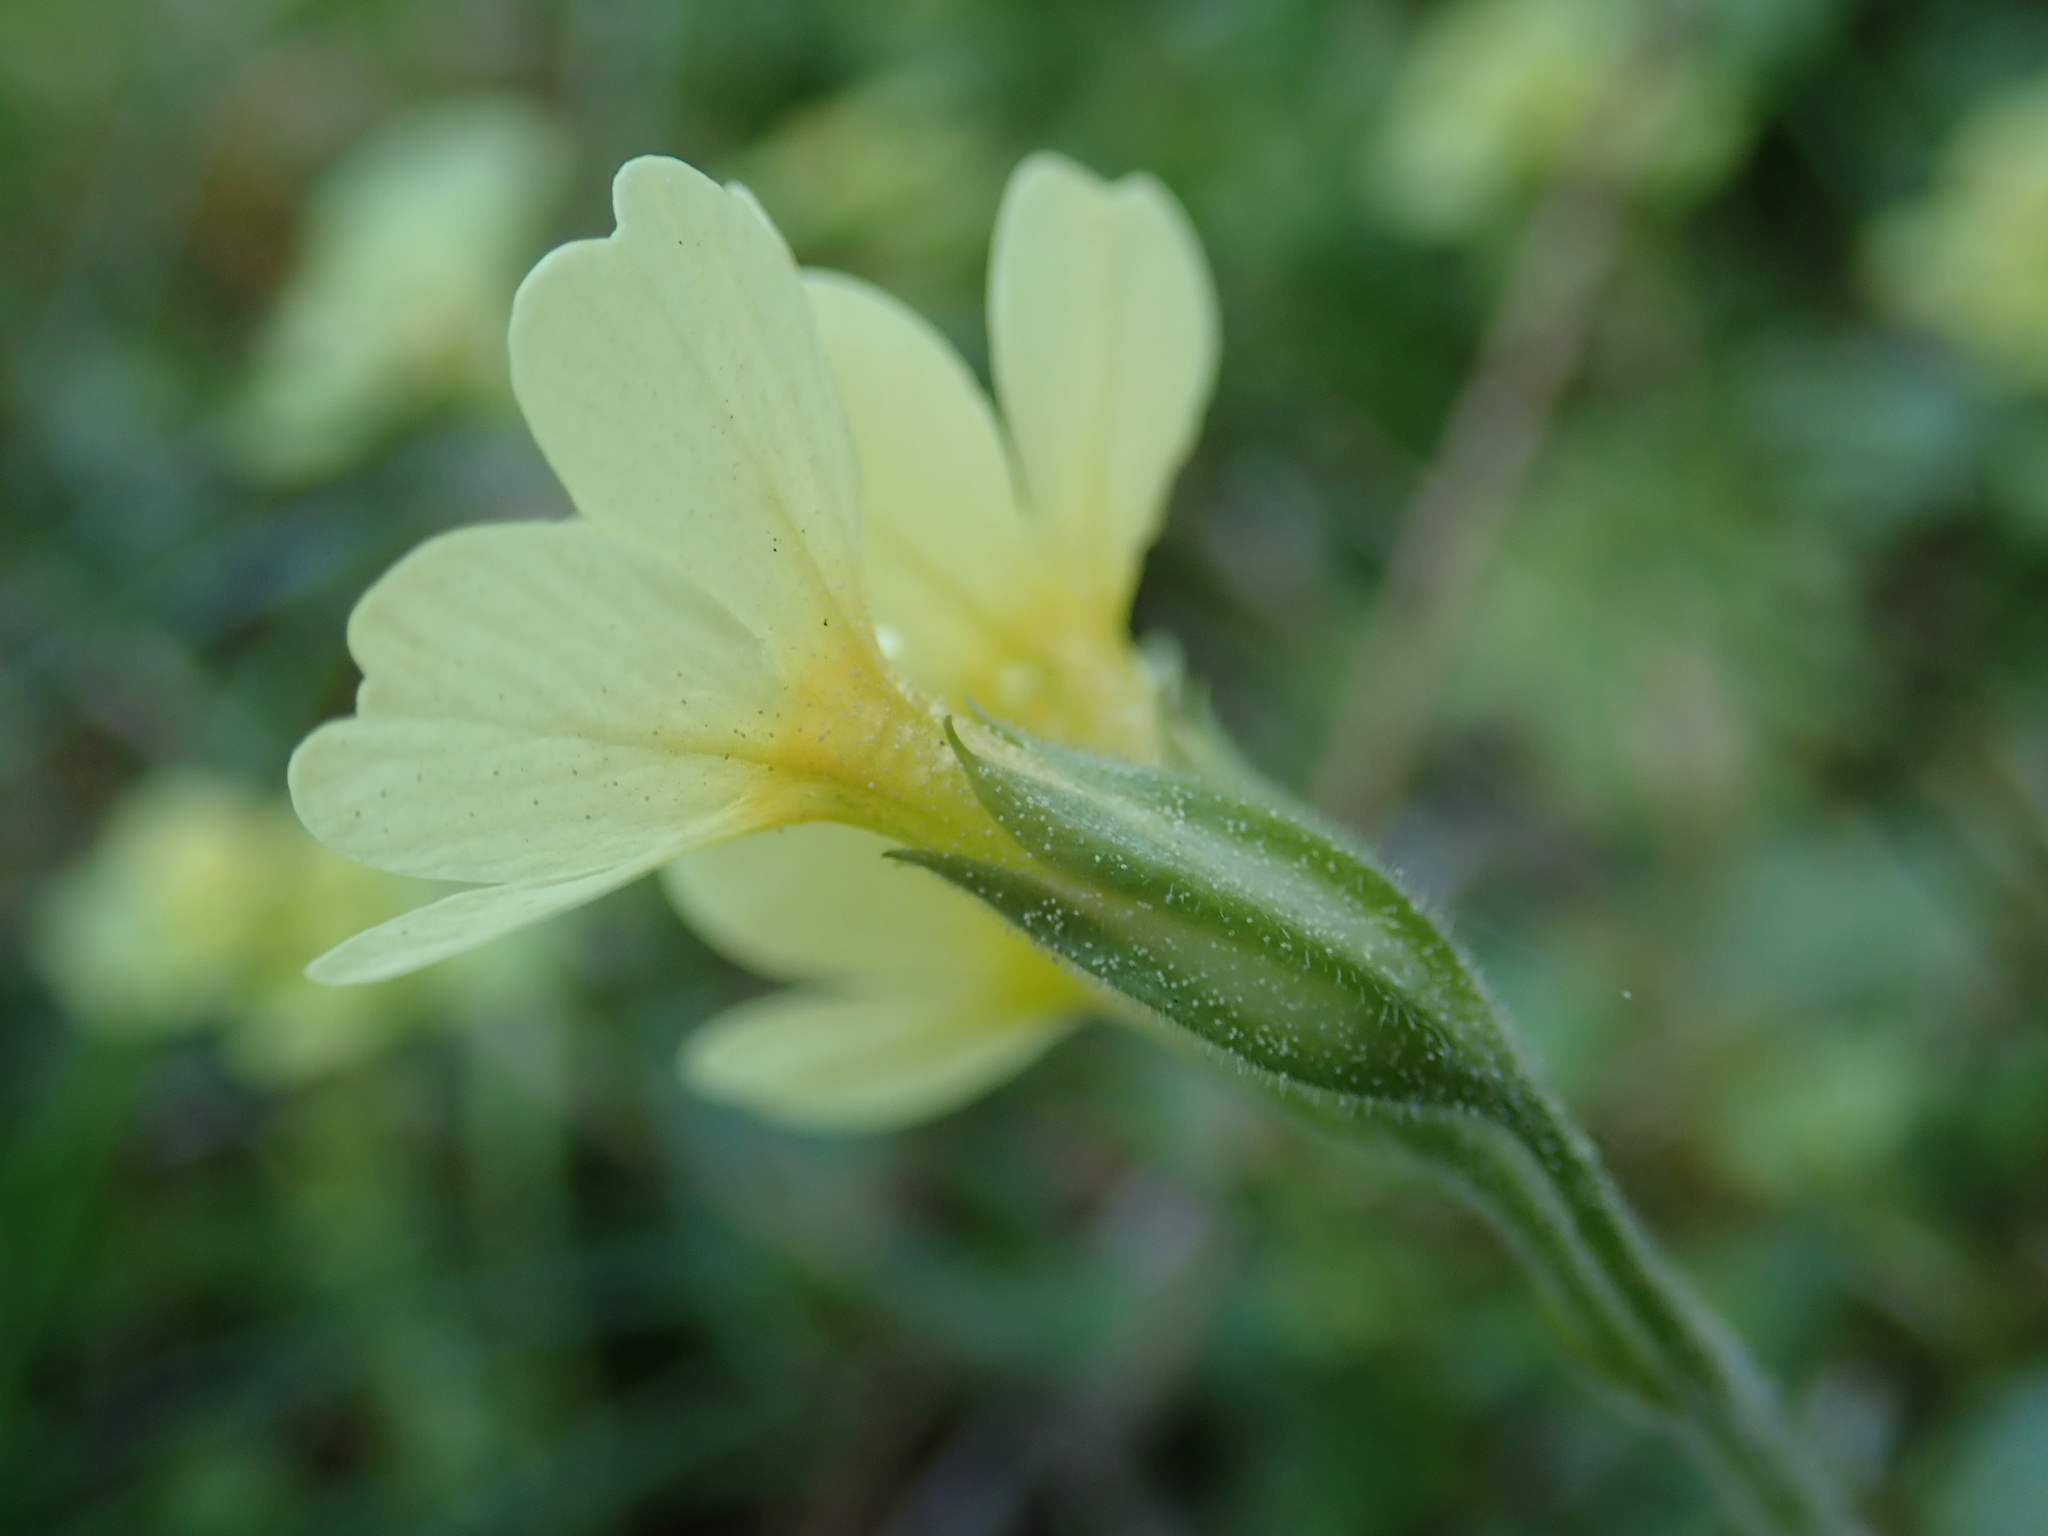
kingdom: Plantae
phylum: Tracheophyta
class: Magnoliopsida
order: Ericales
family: Primulaceae
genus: Primula
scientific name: Primula elatior
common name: Oxlip
